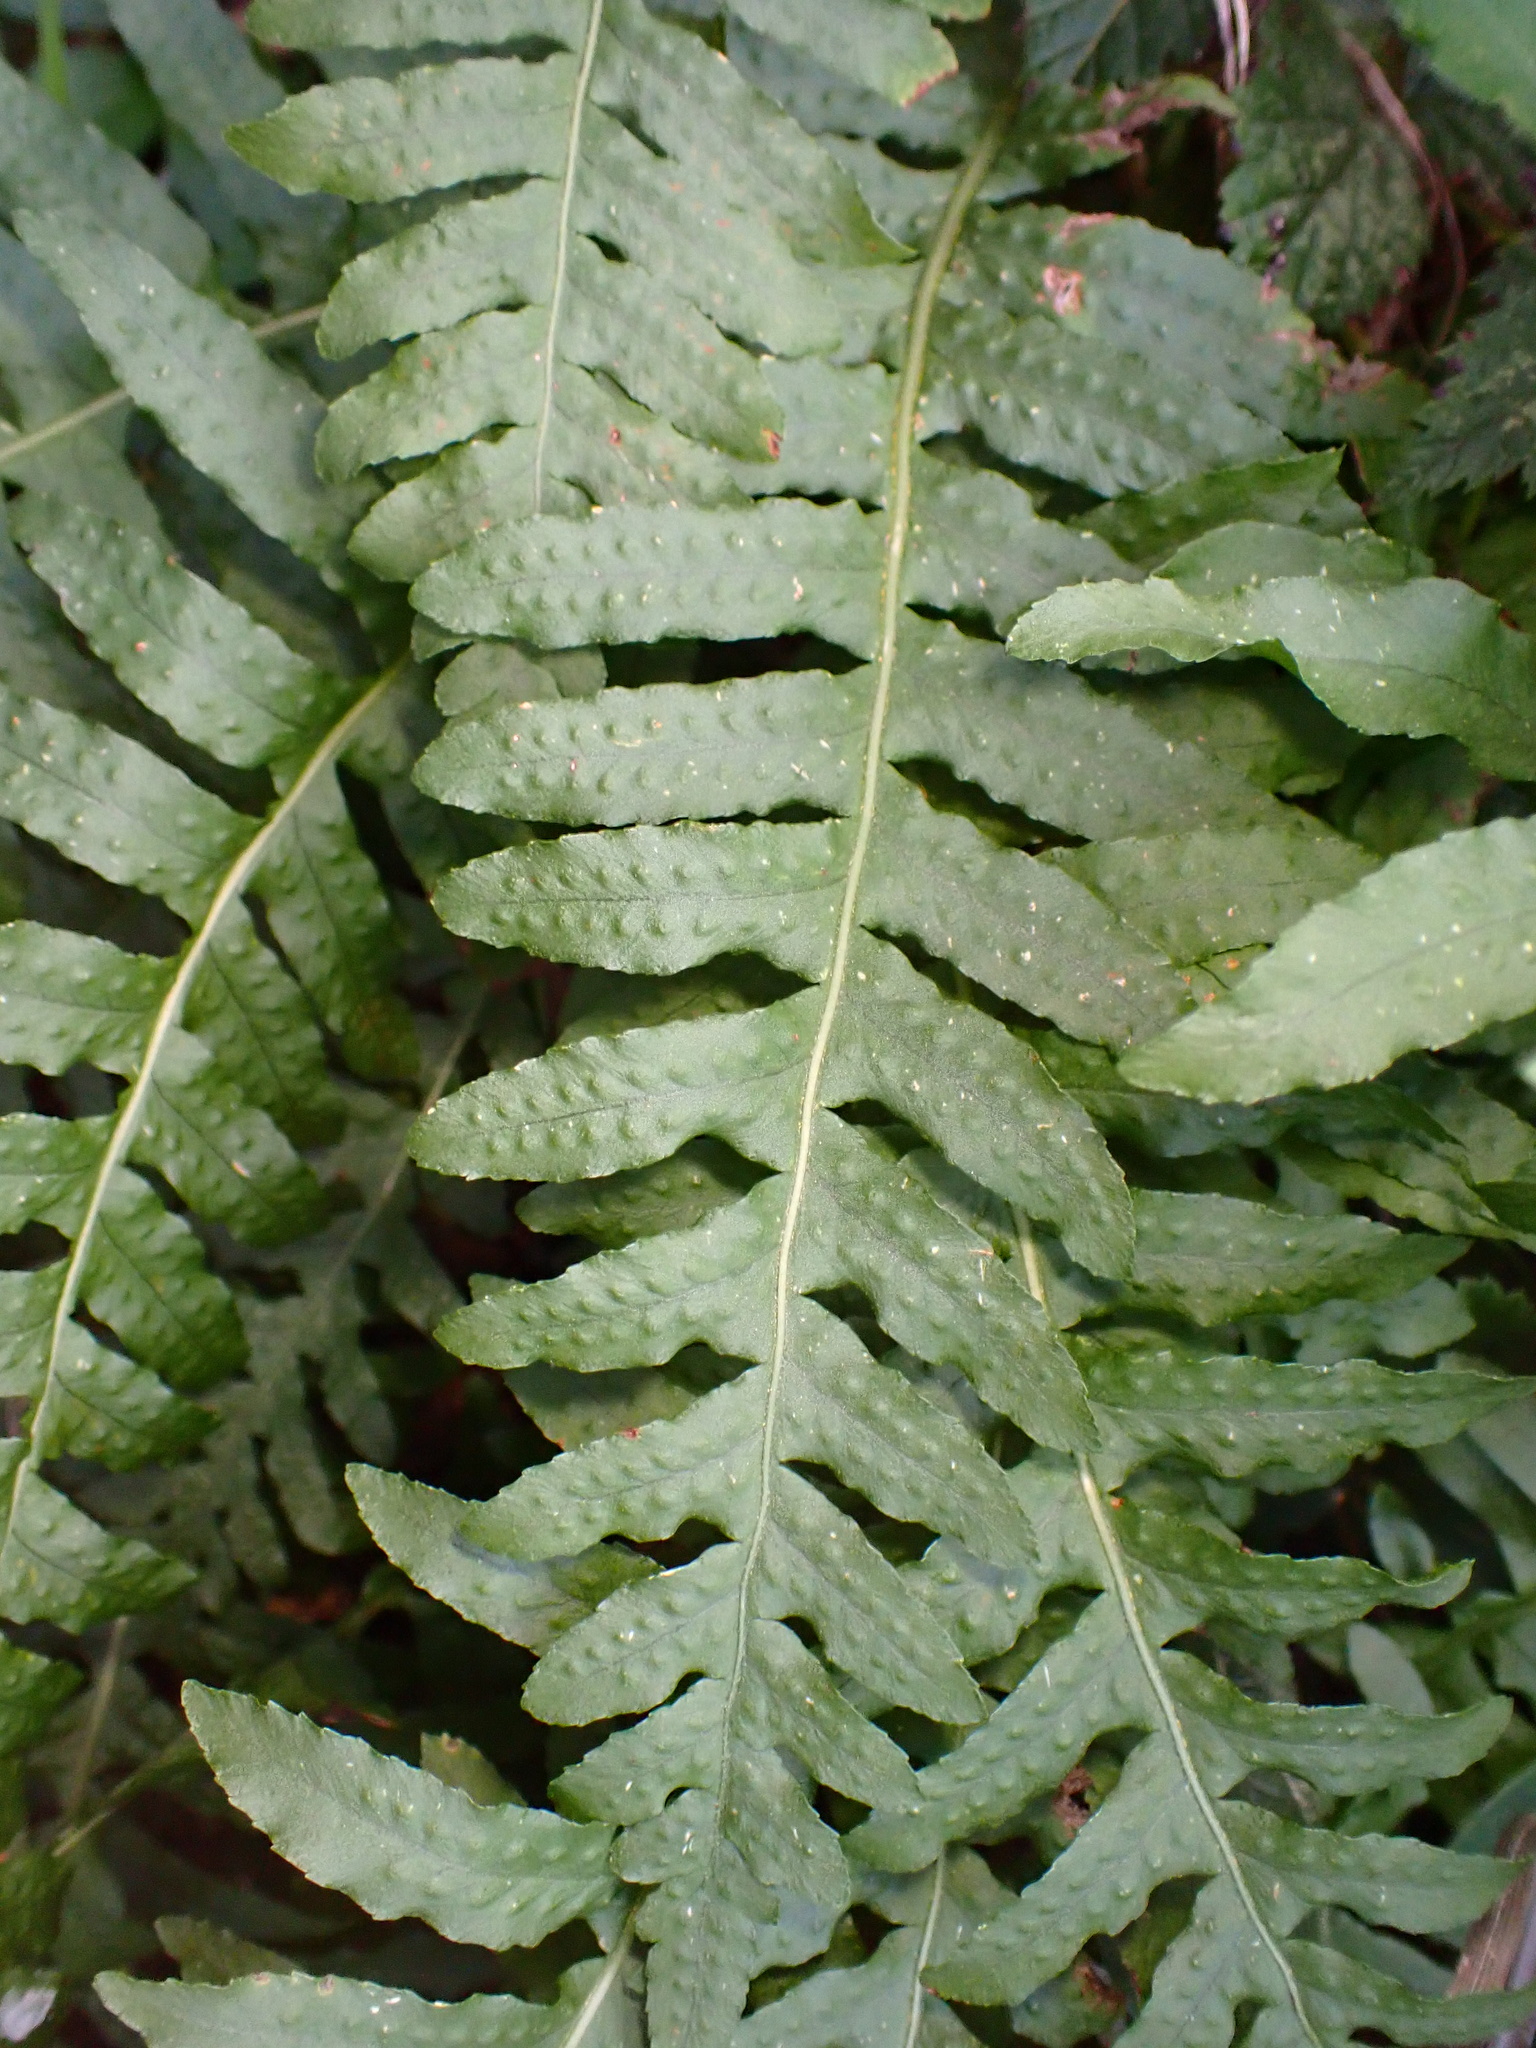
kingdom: Plantae
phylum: Tracheophyta
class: Polypodiopsida
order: Polypodiales
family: Polypodiaceae
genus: Polypodium
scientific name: Polypodium calirhiza
